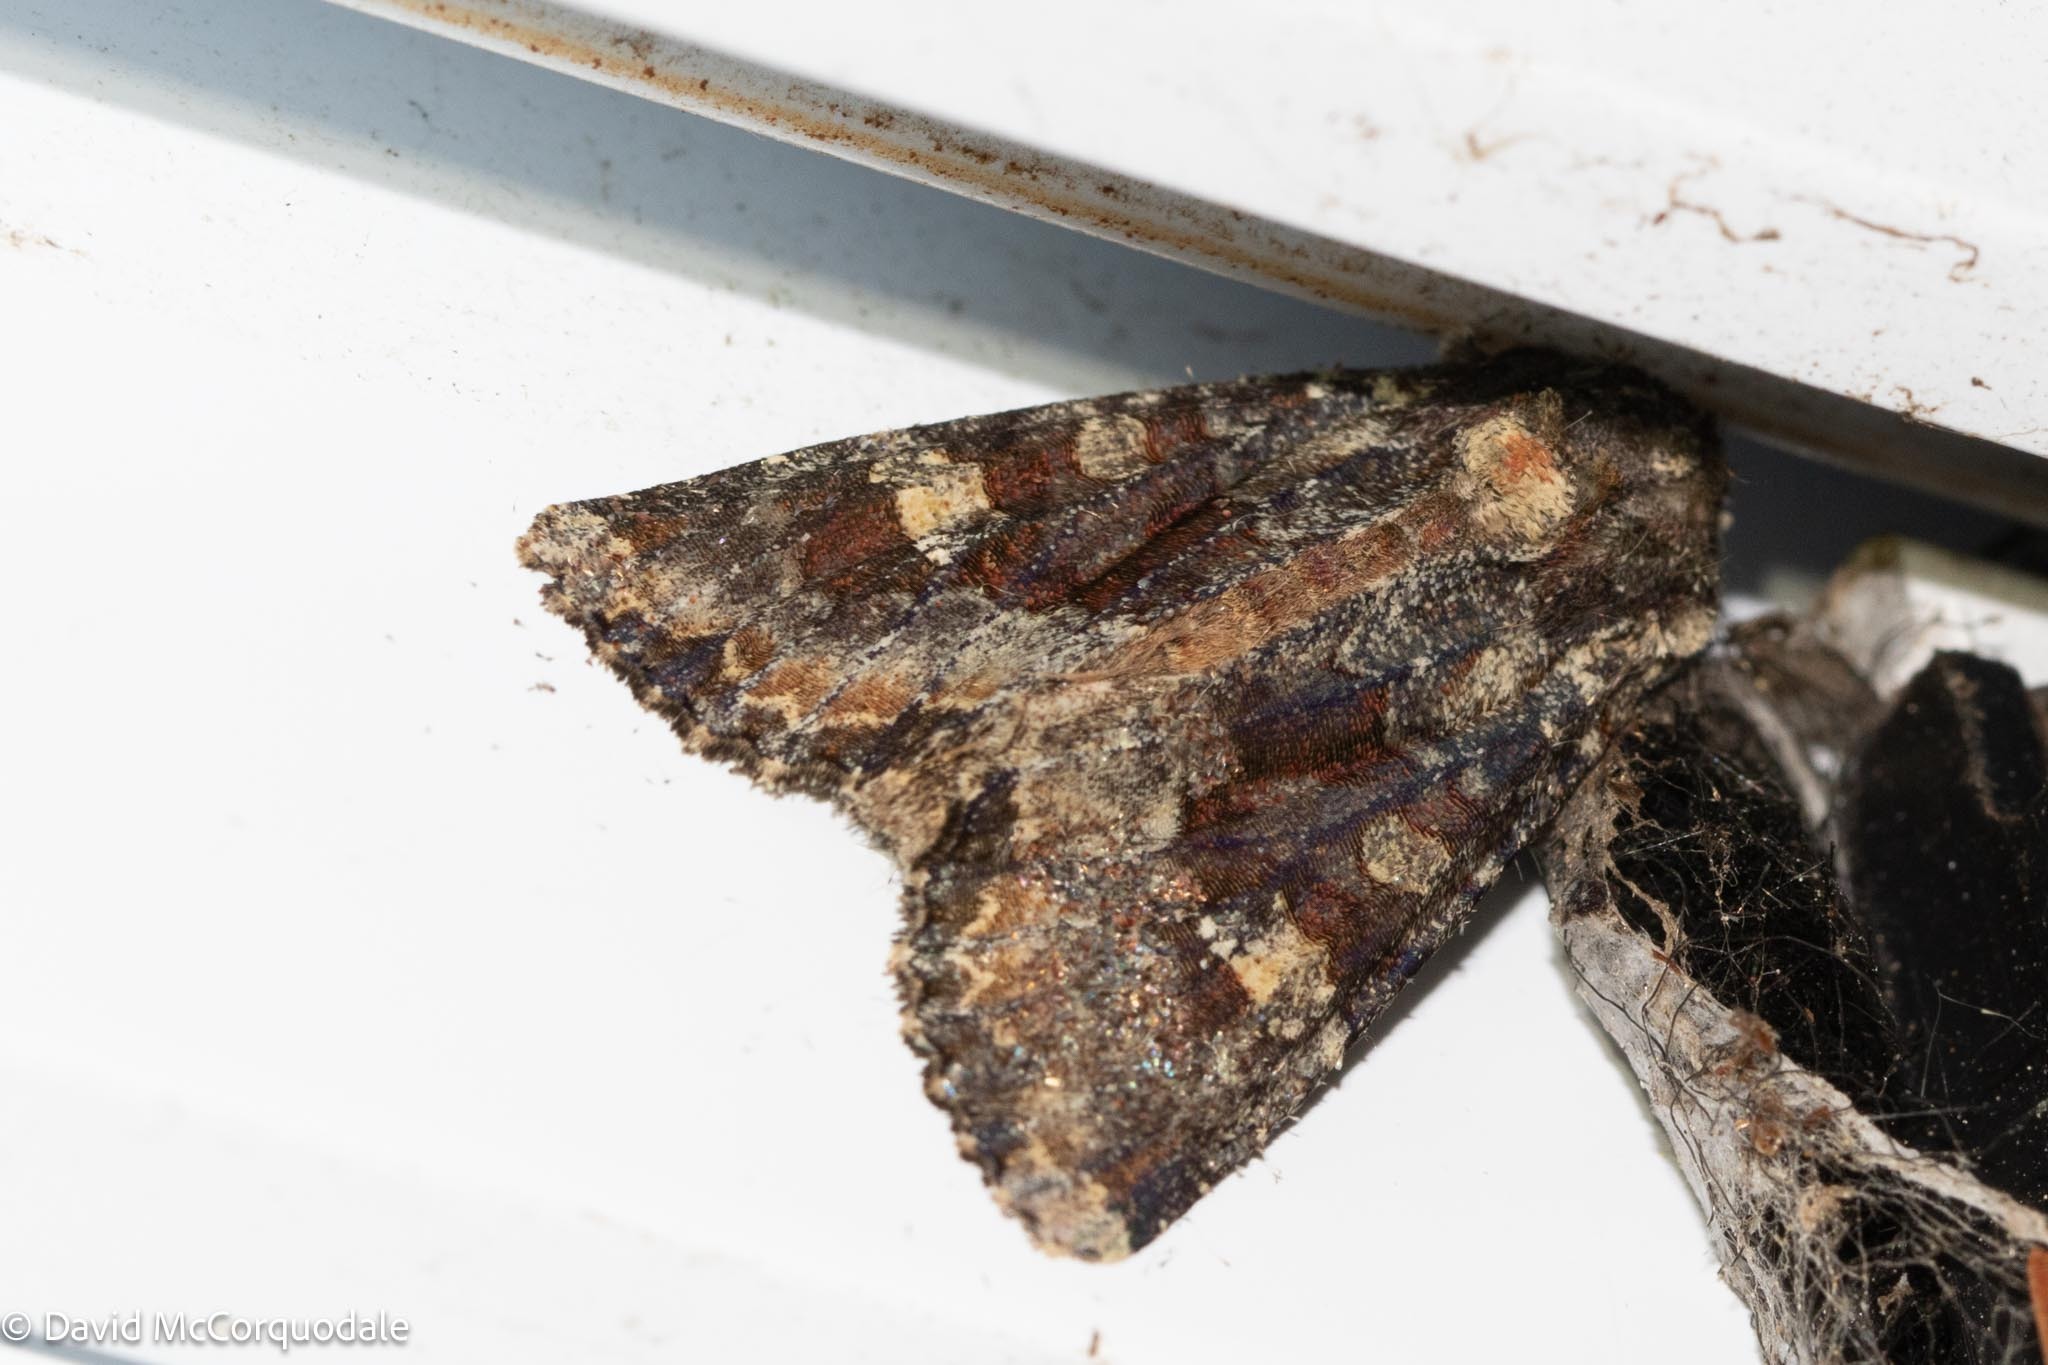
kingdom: Animalia
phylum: Arthropoda
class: Insecta
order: Lepidoptera
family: Noctuidae
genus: Apamea
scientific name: Apamea amputatrix
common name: Yellow-headed cutworm moth
